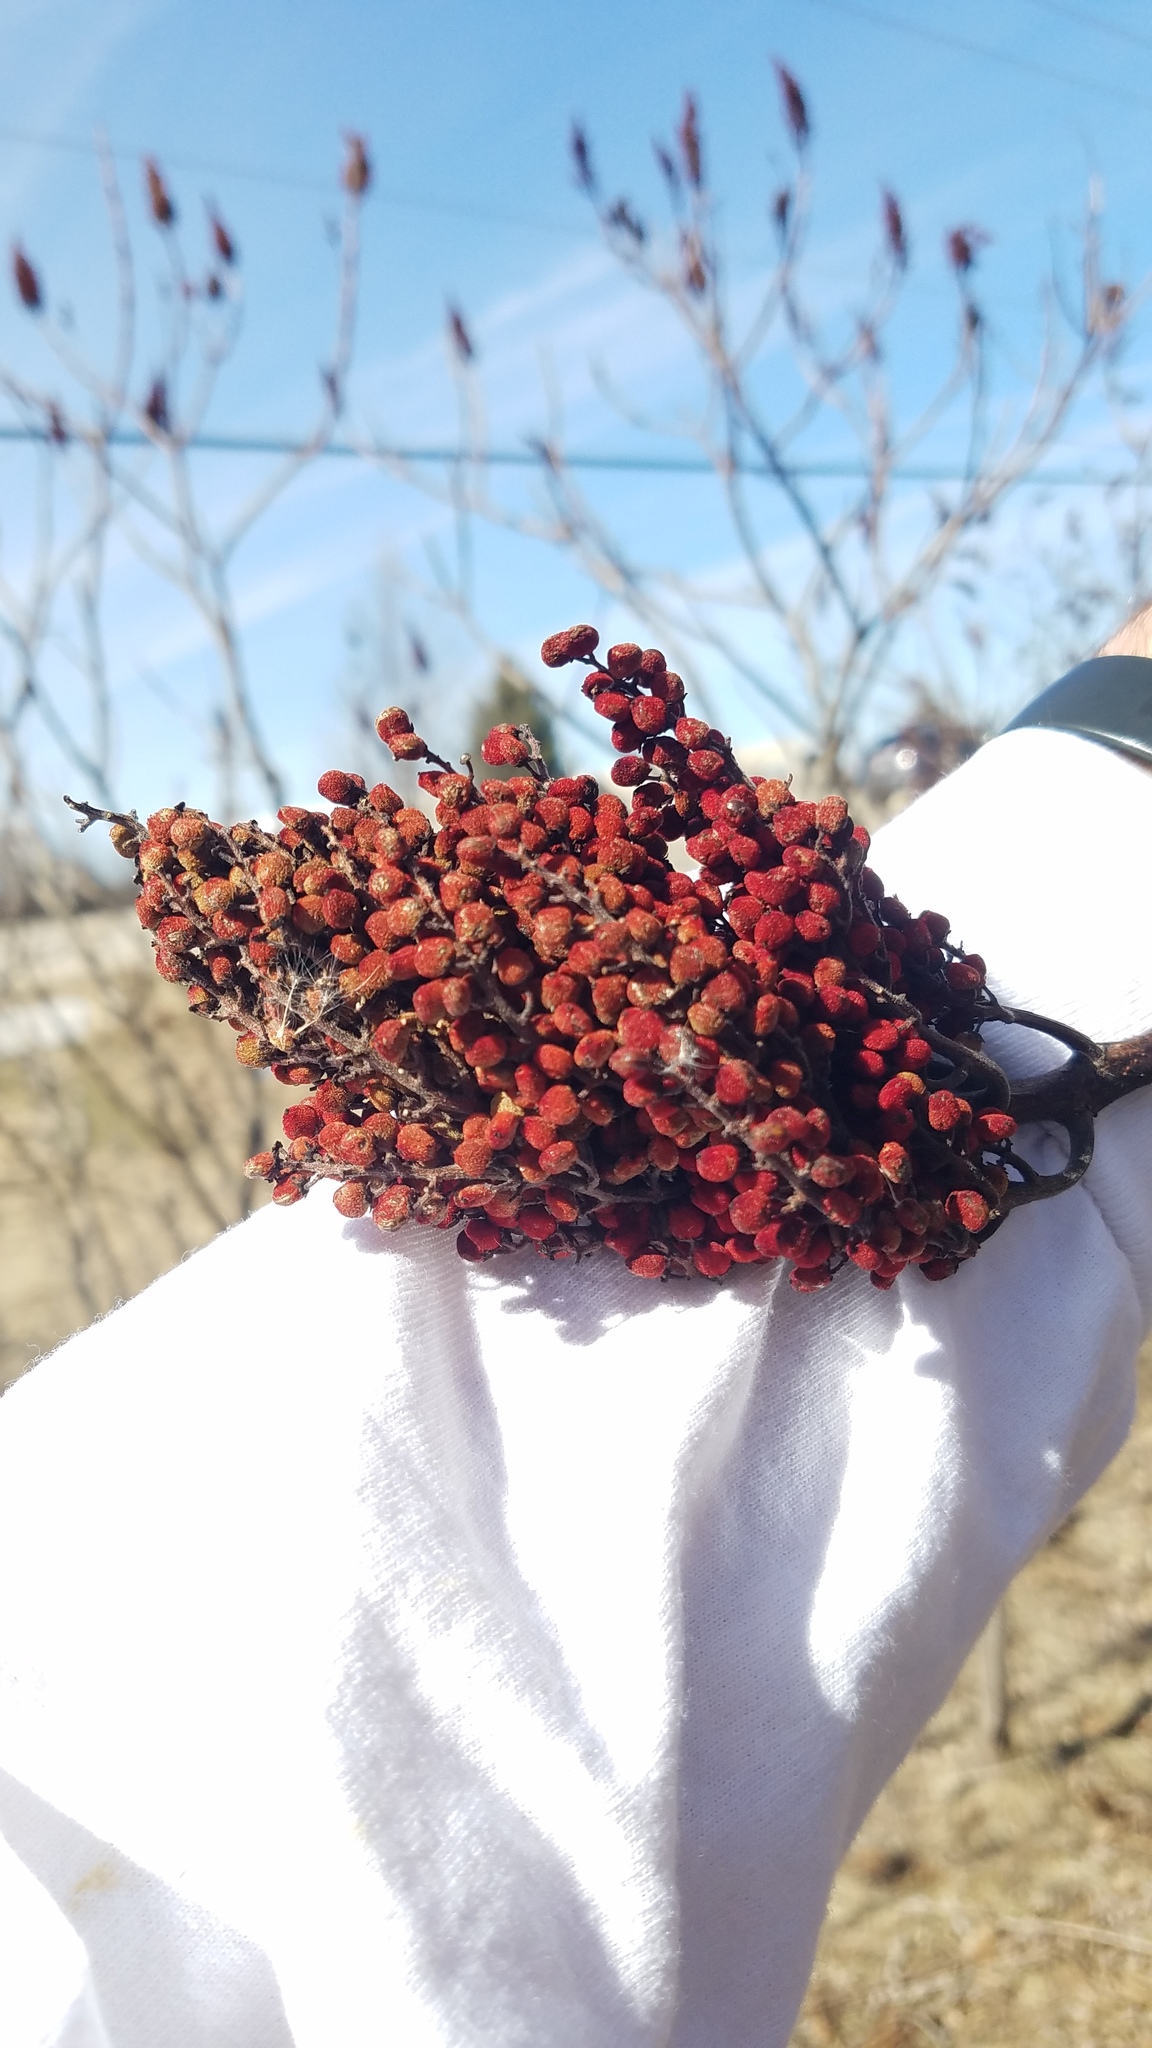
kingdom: Plantae
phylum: Tracheophyta
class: Magnoliopsida
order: Sapindales
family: Anacardiaceae
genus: Rhus
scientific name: Rhus glabra
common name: Scarlet sumac
